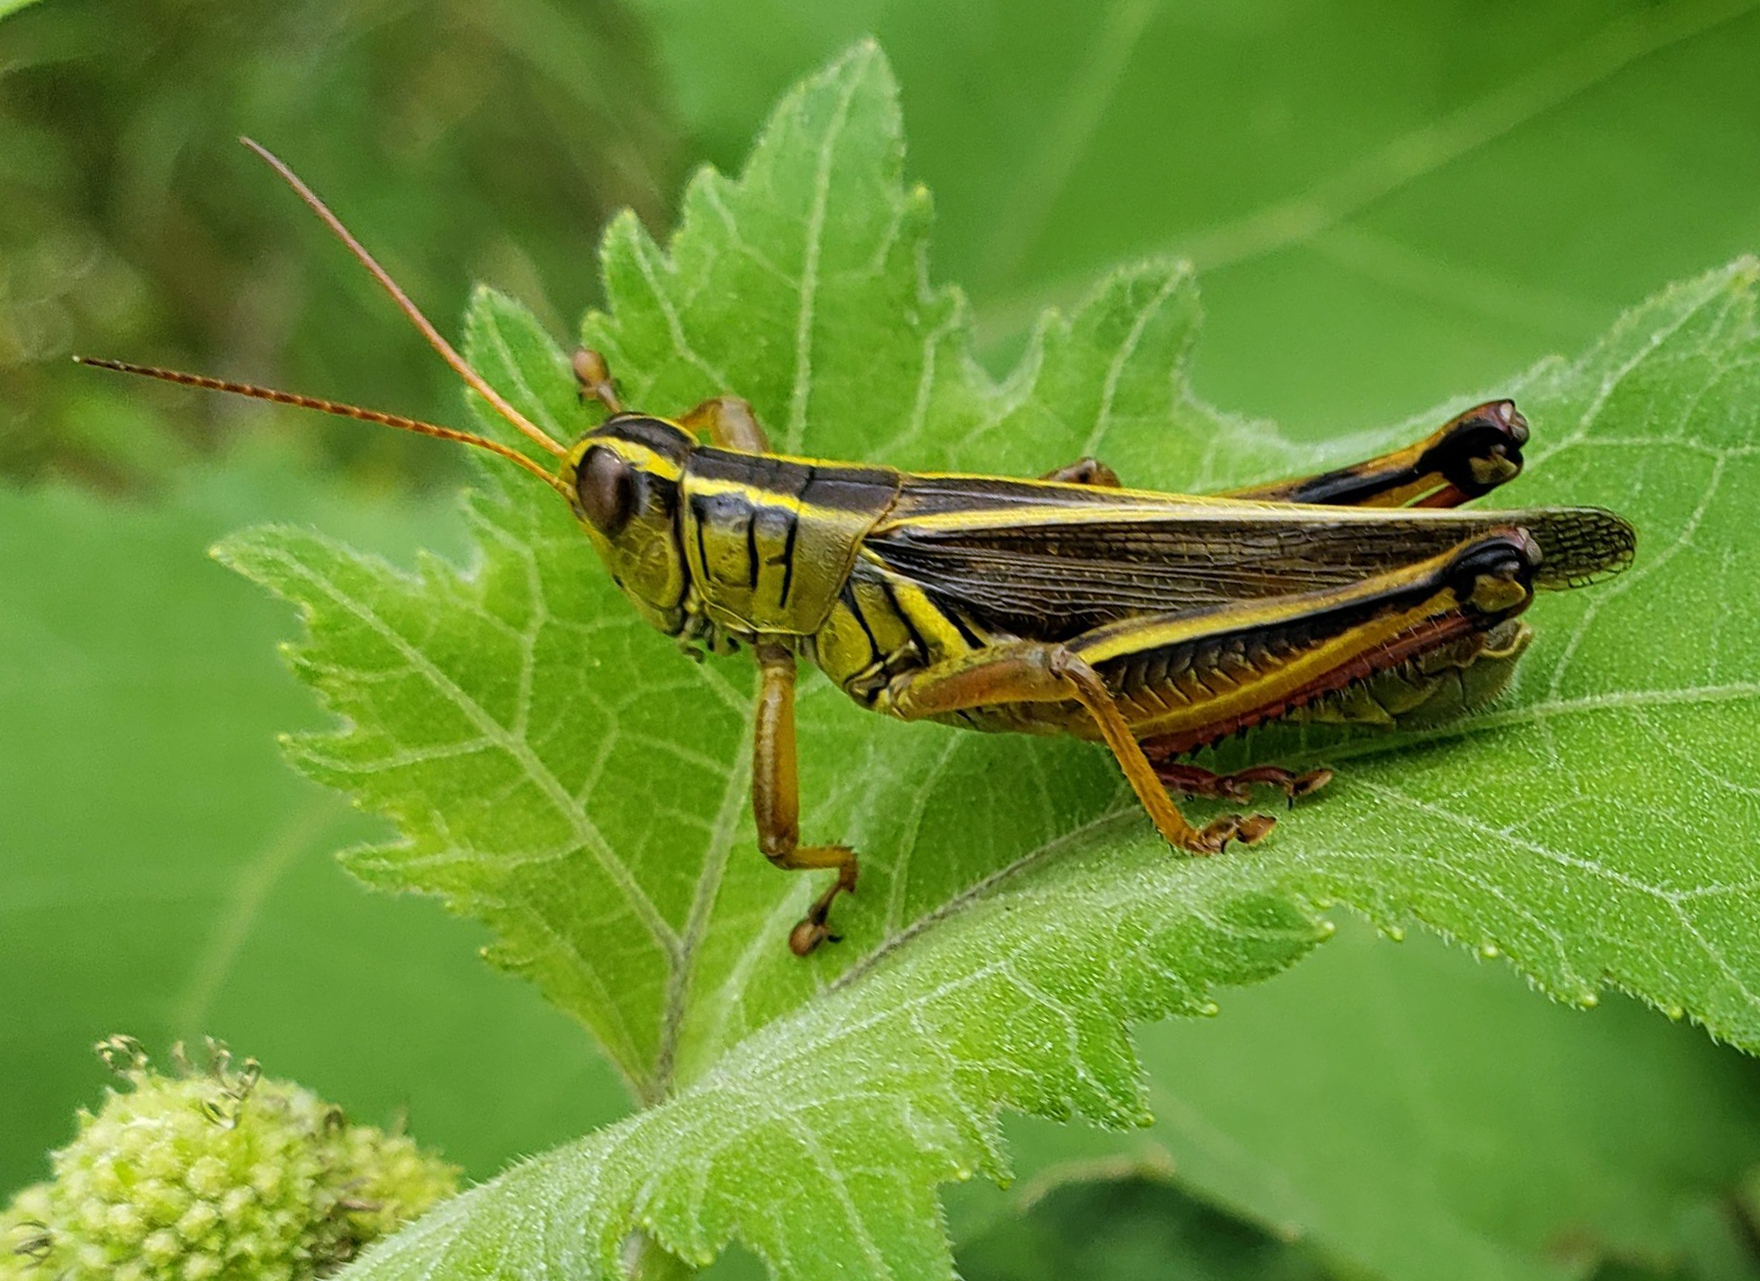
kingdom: Animalia
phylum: Arthropoda
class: Insecta
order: Orthoptera
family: Acrididae
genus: Melanoplus
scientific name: Melanoplus bivittatus
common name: Two-striped grasshopper
